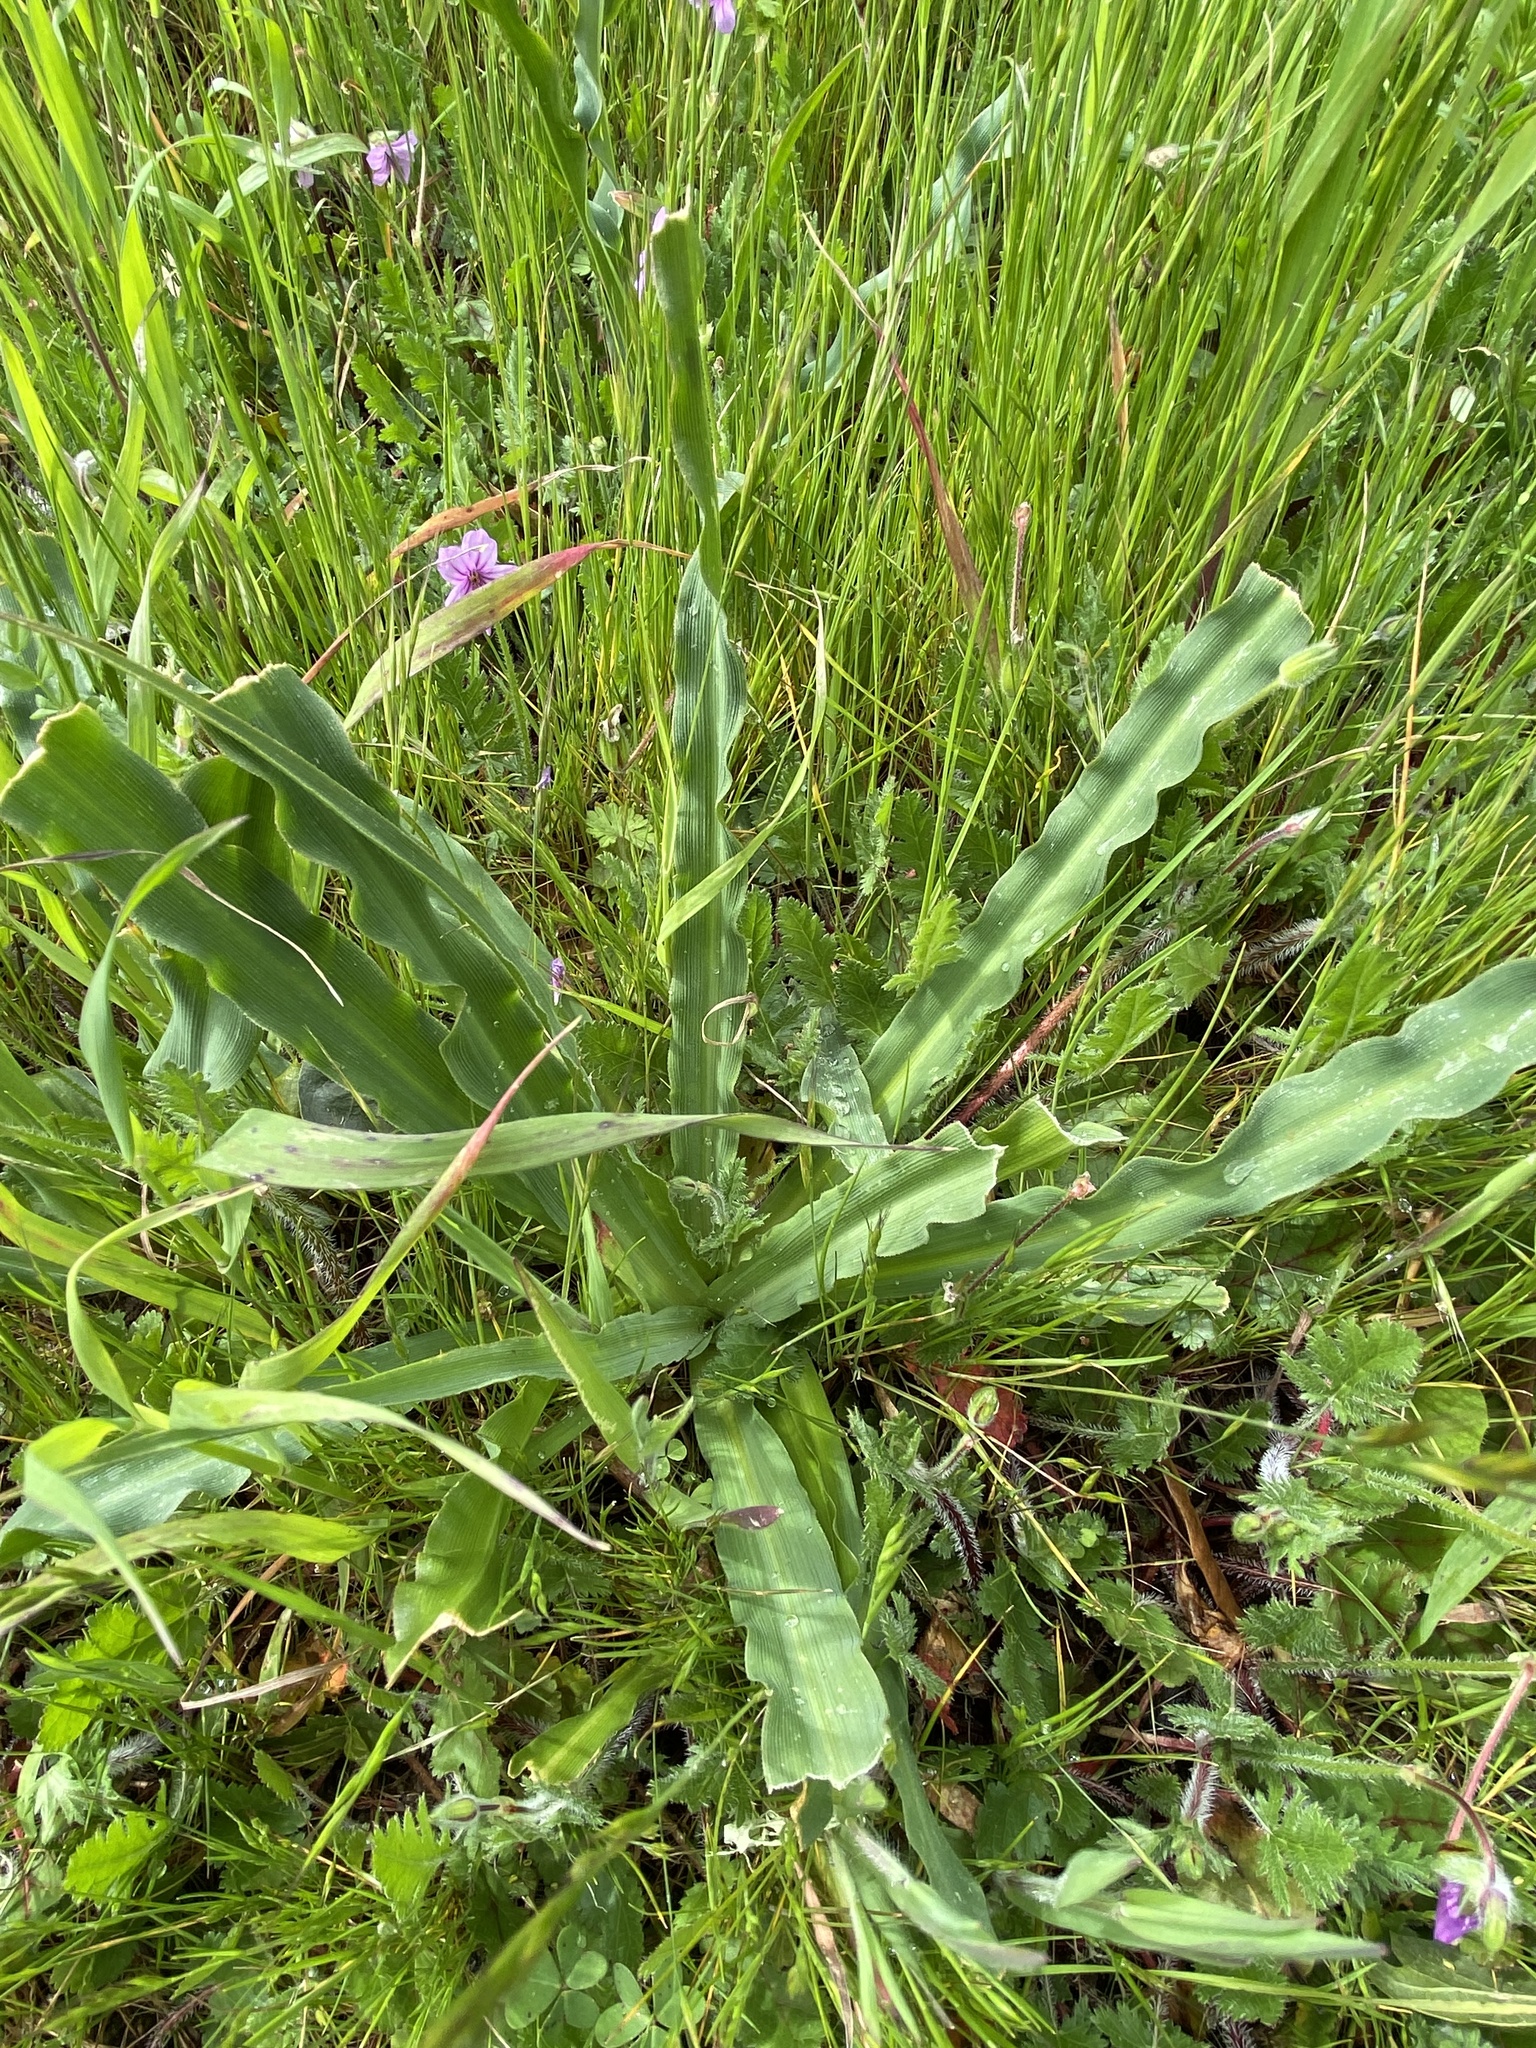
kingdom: Plantae
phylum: Tracheophyta
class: Liliopsida
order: Asparagales
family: Asparagaceae
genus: Chlorogalum
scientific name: Chlorogalum pomeridianum
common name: Amole
